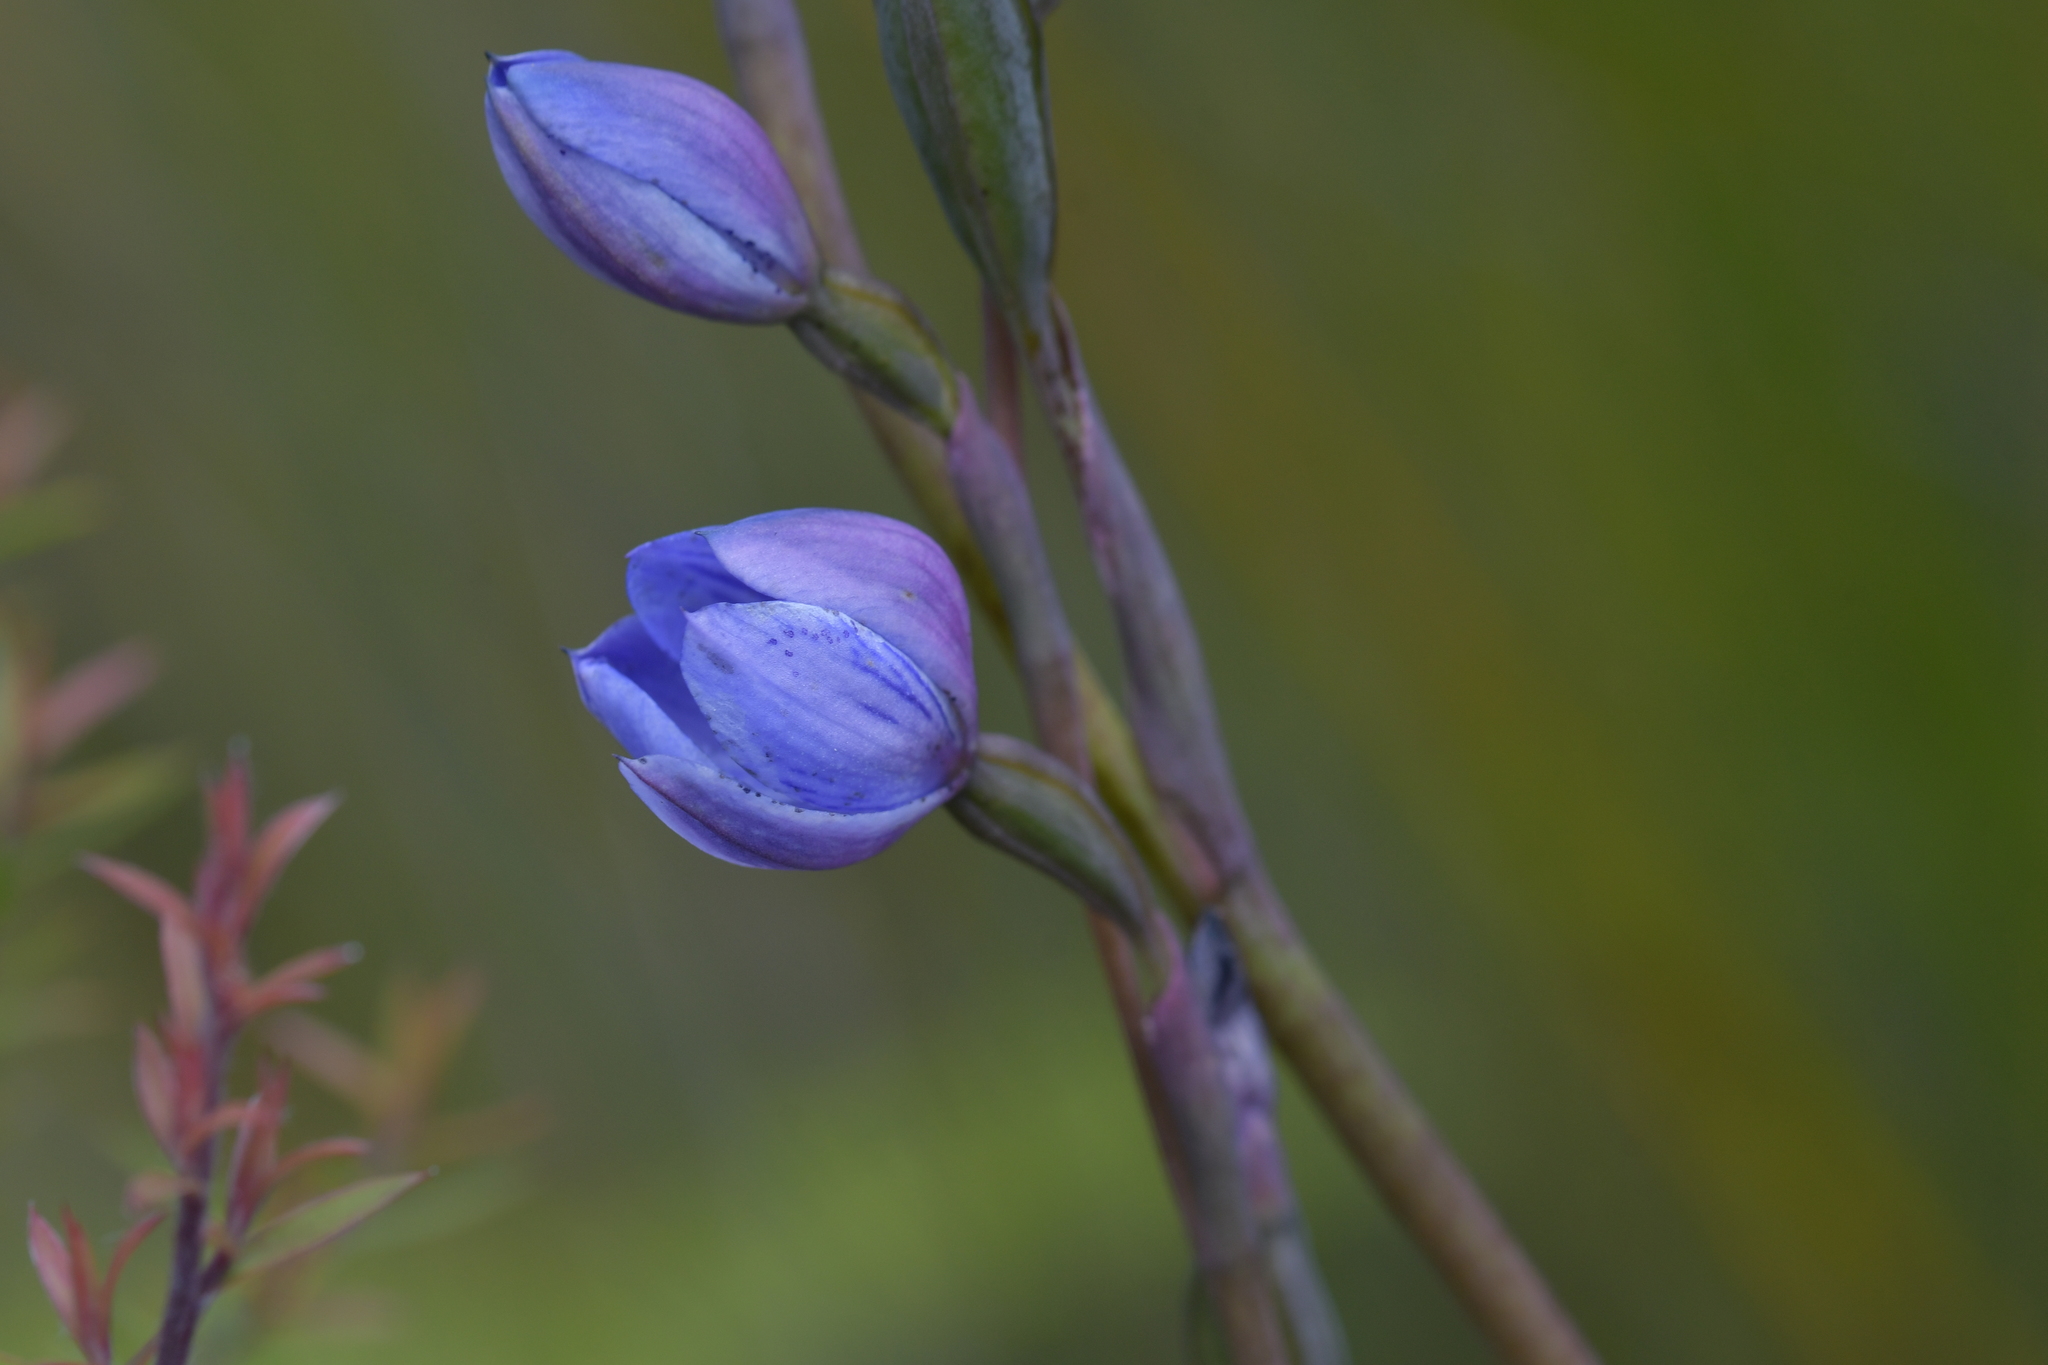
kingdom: Plantae
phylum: Tracheophyta
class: Liliopsida
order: Asparagales
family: Orchidaceae
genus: Thelymitra
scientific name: Thelymitra pulchella
